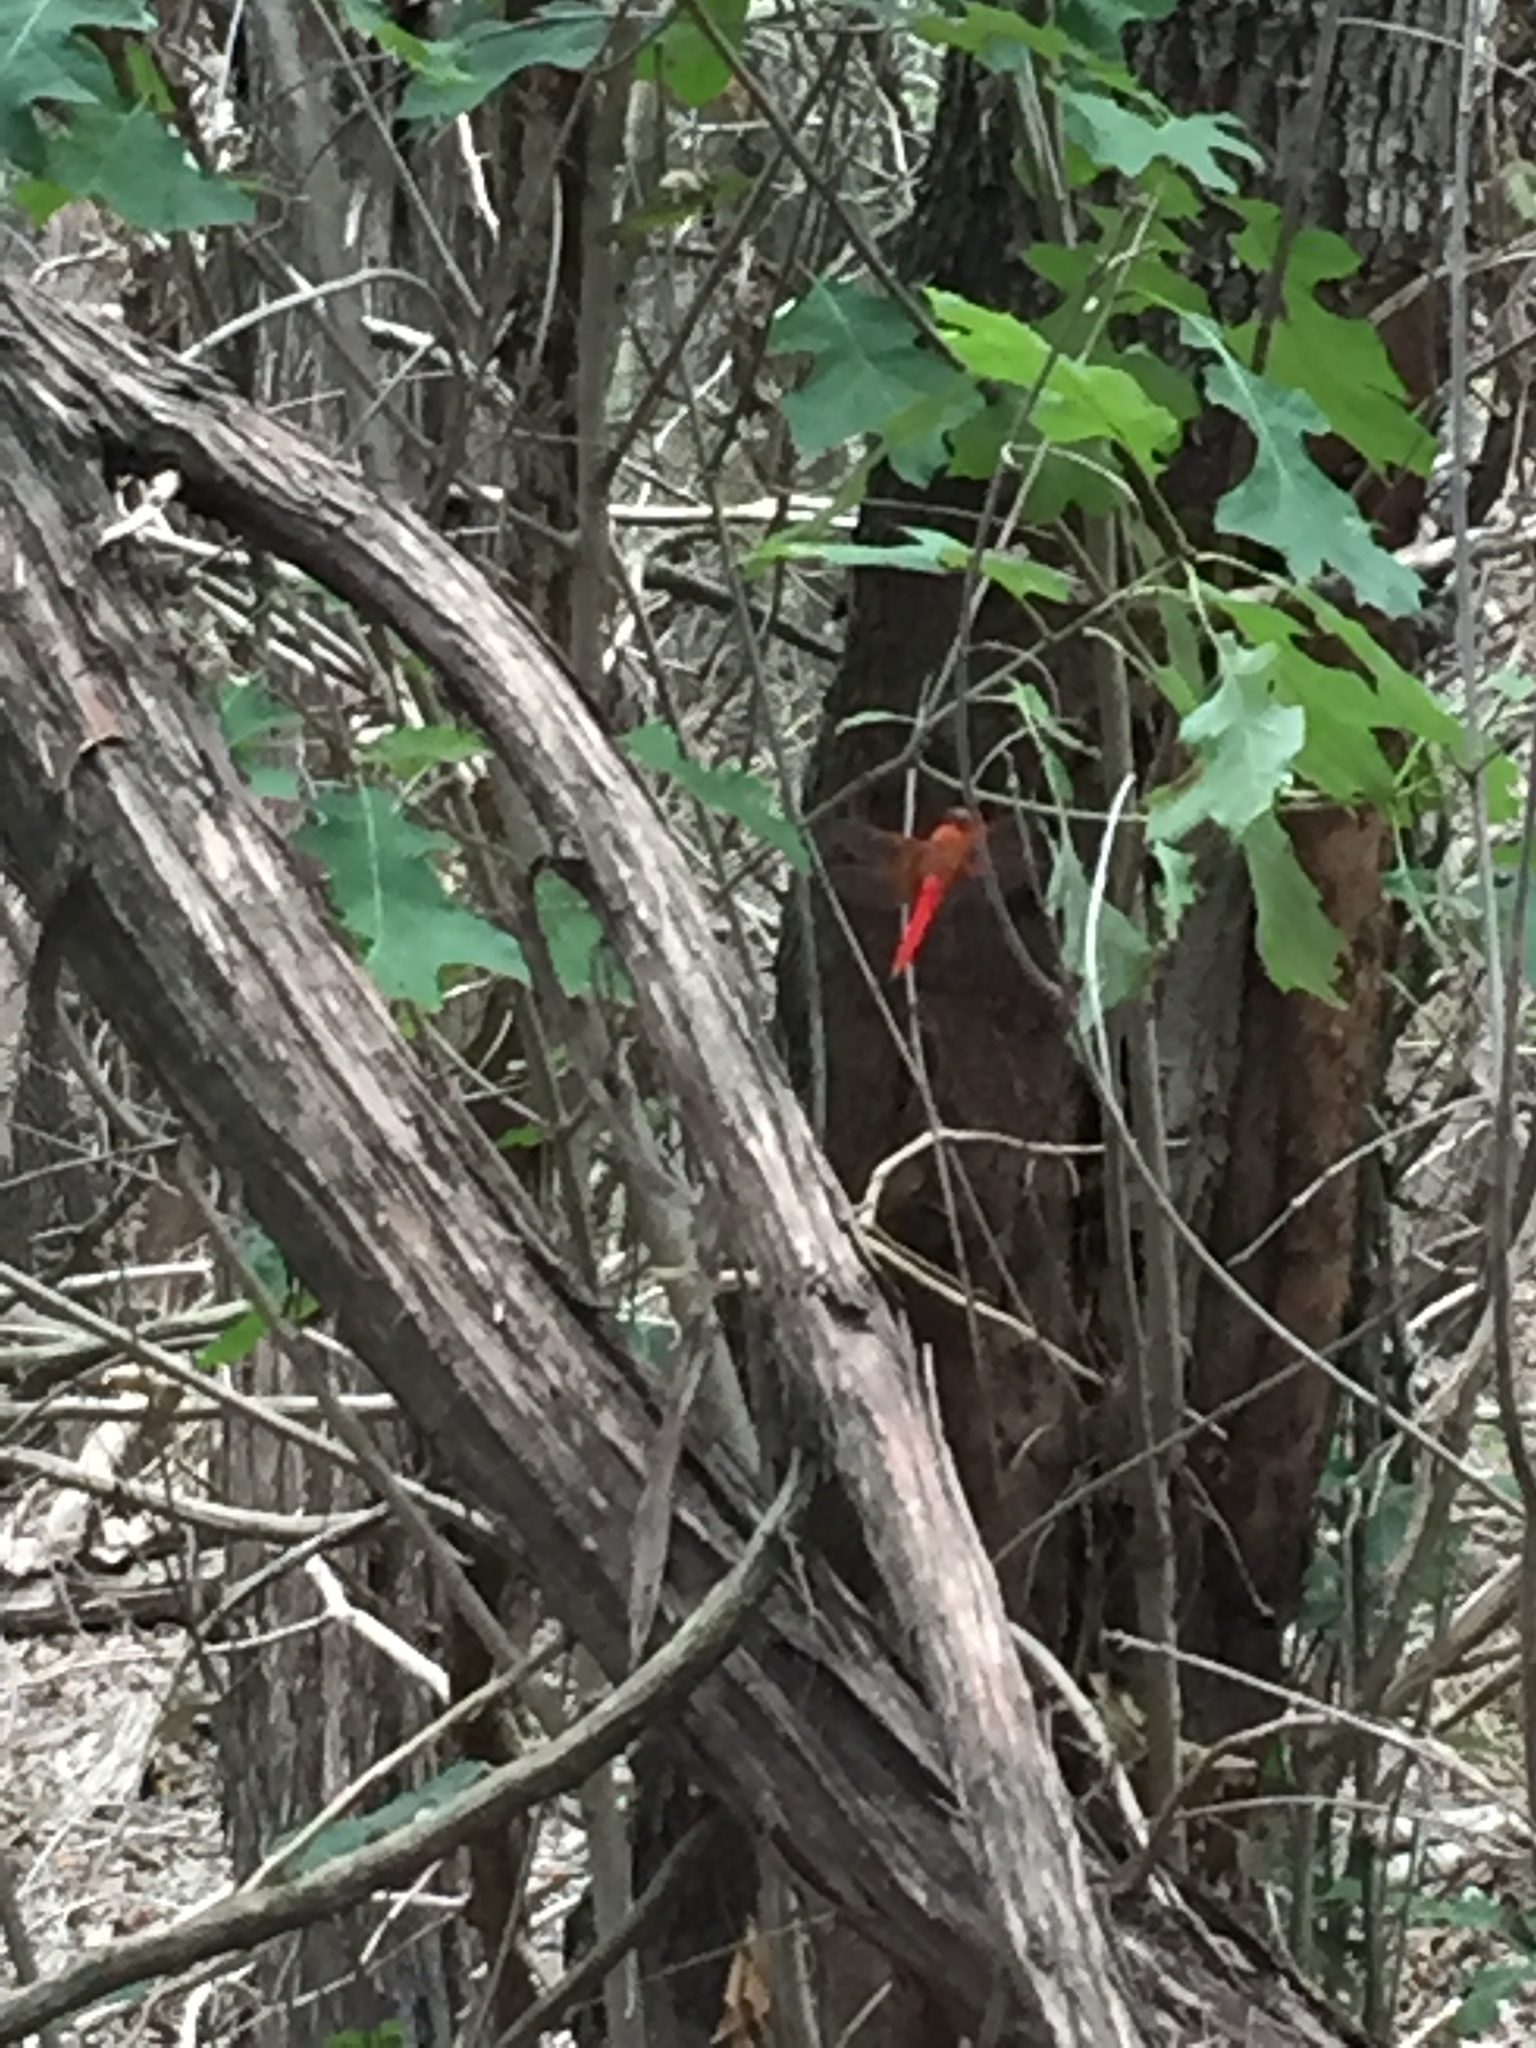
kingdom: Animalia
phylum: Arthropoda
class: Insecta
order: Odonata
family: Libellulidae
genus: Libellula
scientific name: Libellula croceipennis
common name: Neon skimmer
